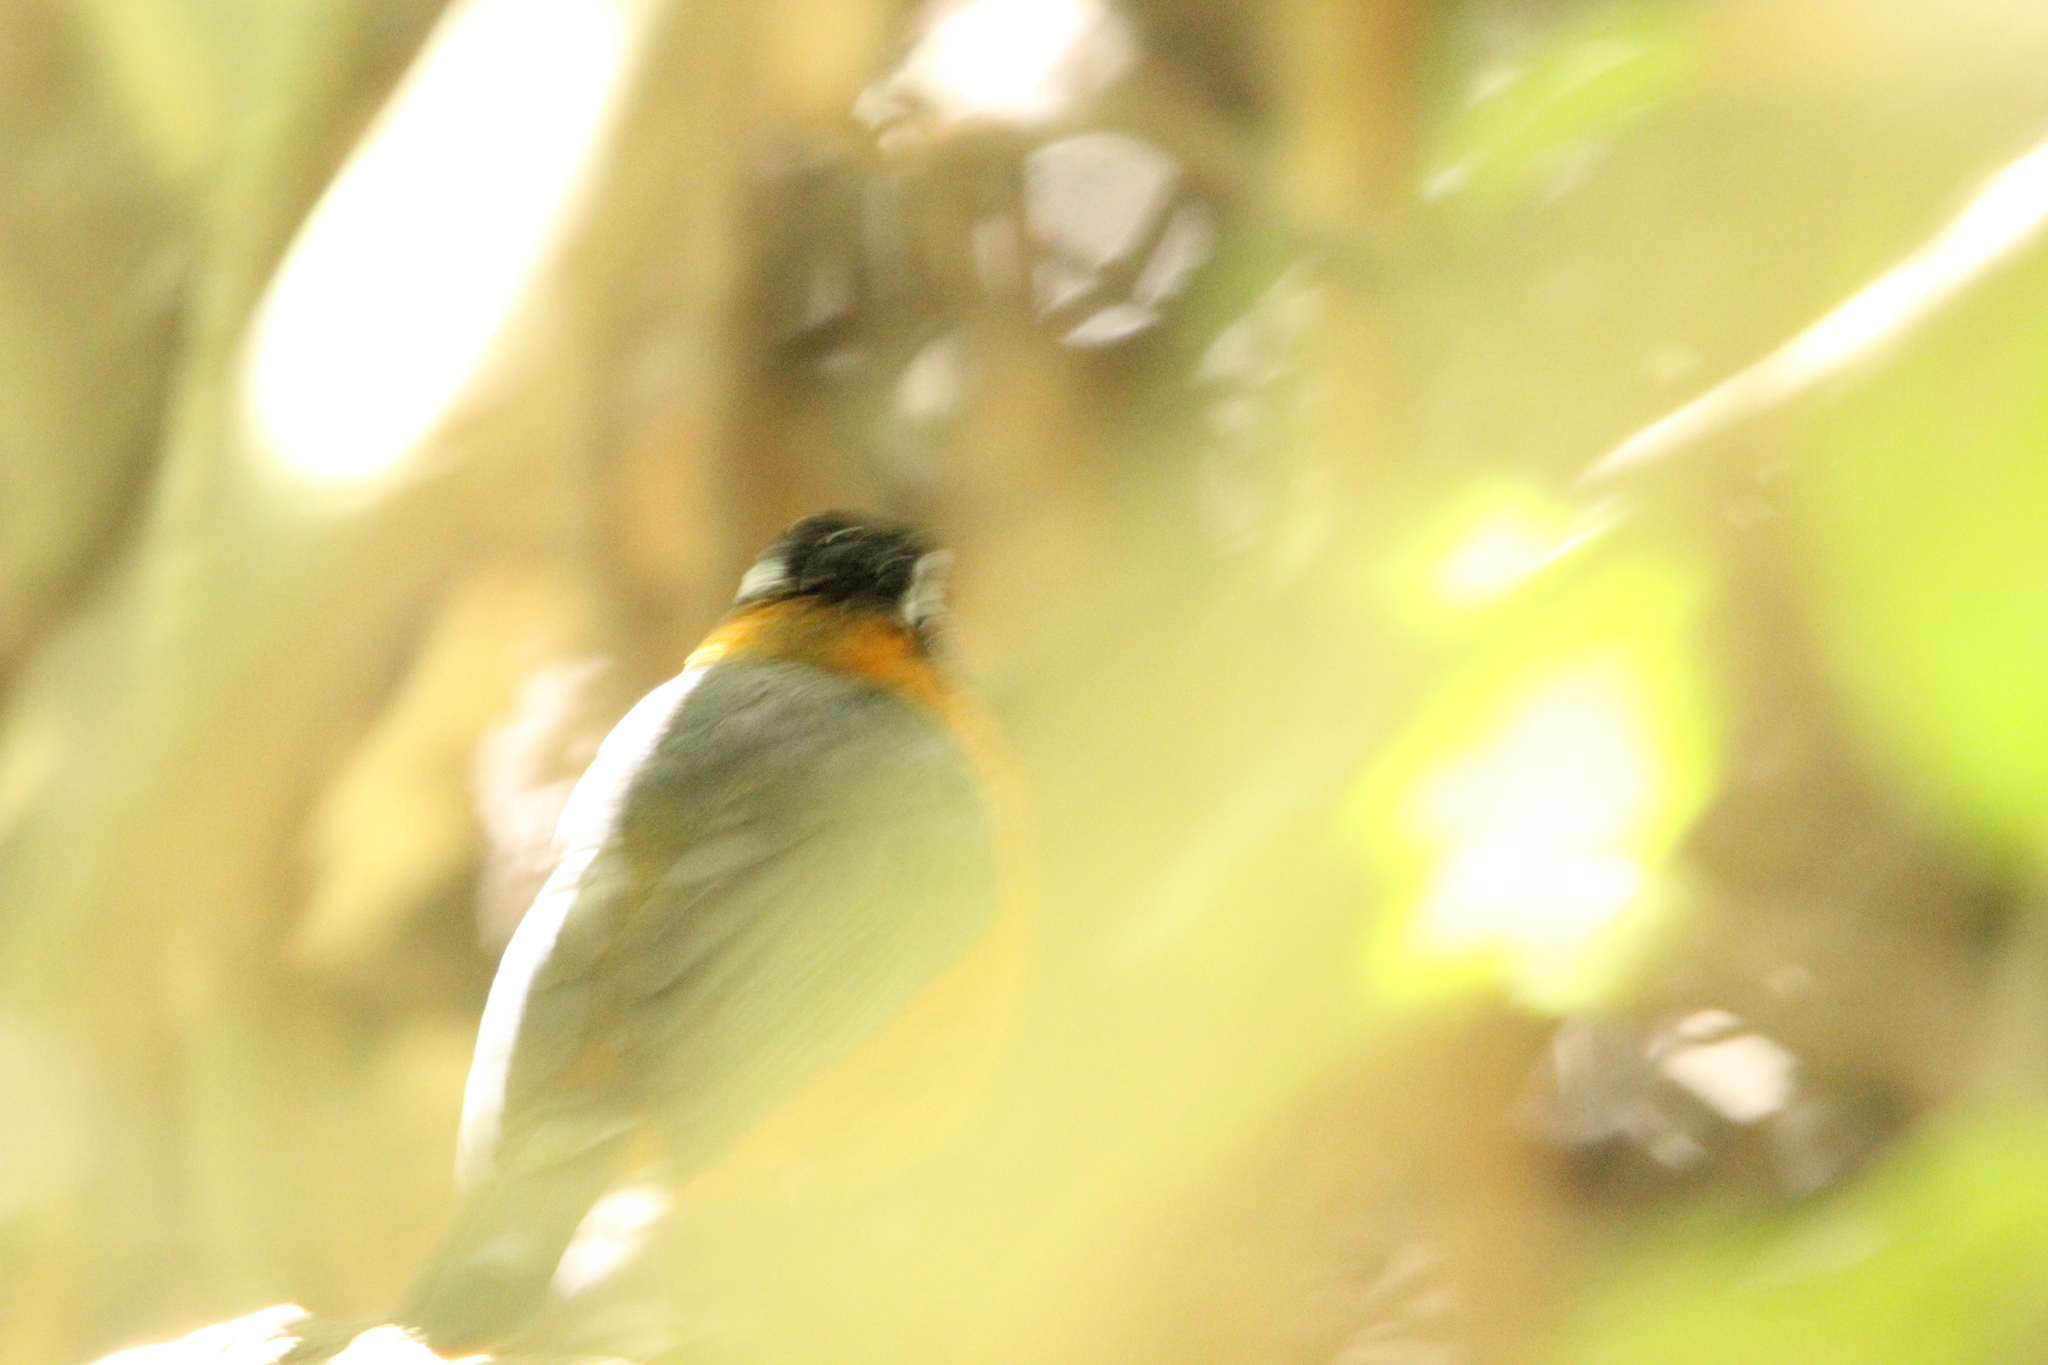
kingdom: Animalia
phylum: Chordata
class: Aves
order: Passeriformes
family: Muscicapidae
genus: Cossypha
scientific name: Cossypha heuglini
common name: White-browed robin-chat
